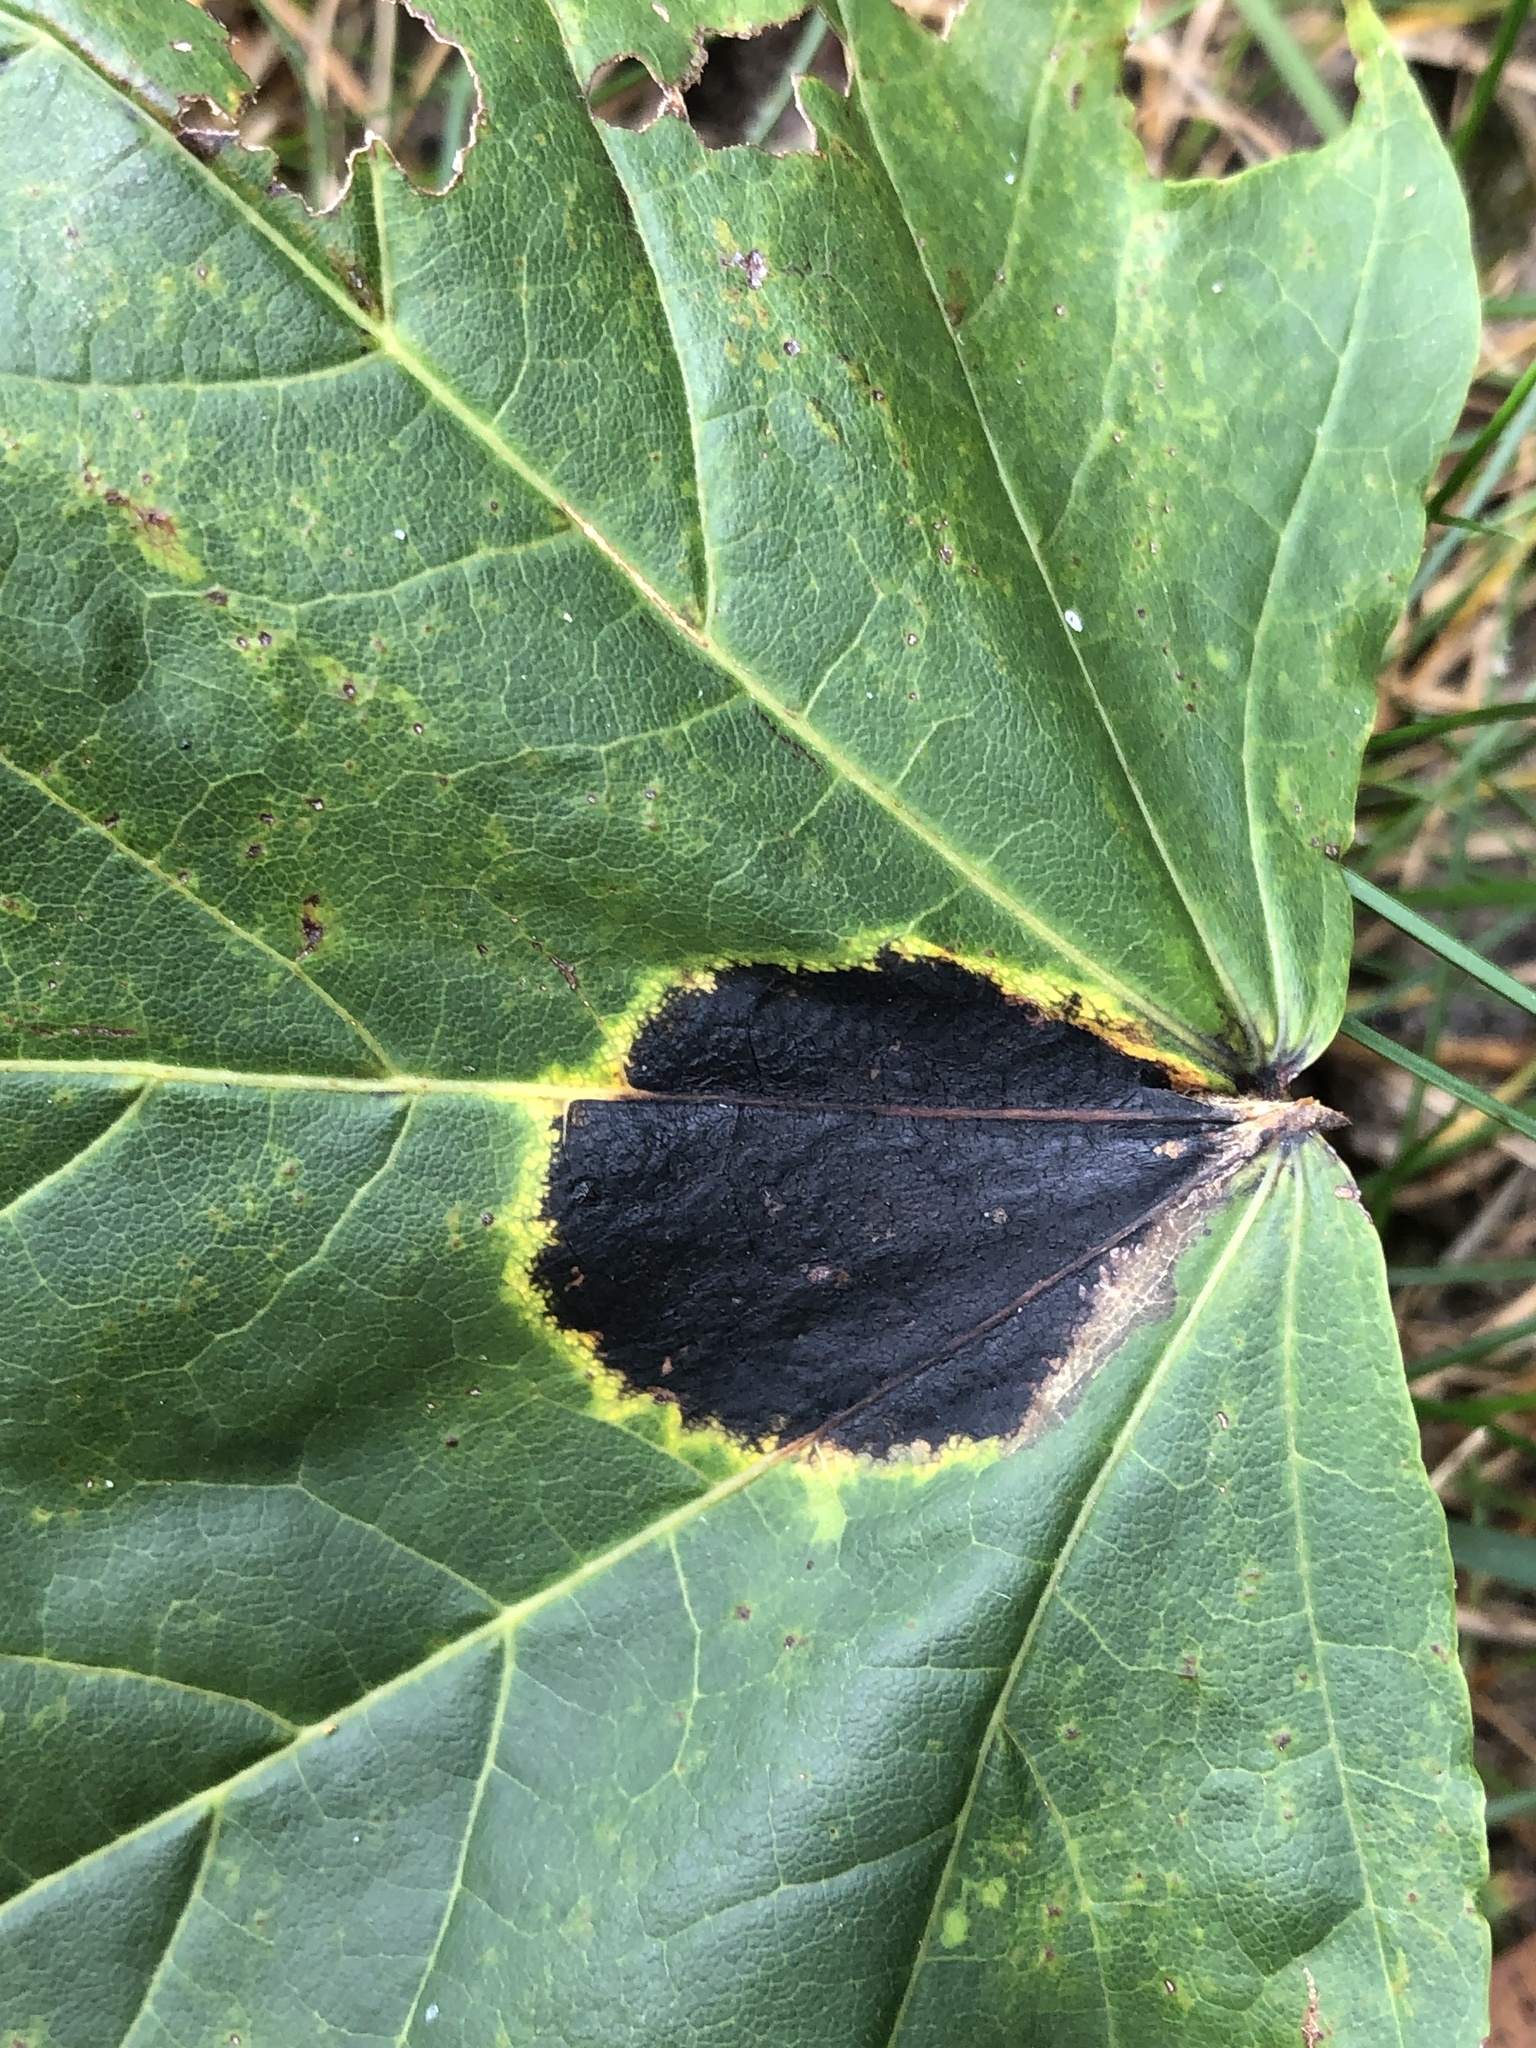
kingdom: Fungi
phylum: Ascomycota
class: Leotiomycetes
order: Rhytismatales
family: Rhytismataceae
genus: Rhytisma
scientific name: Rhytisma acerinum
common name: European tar spot
